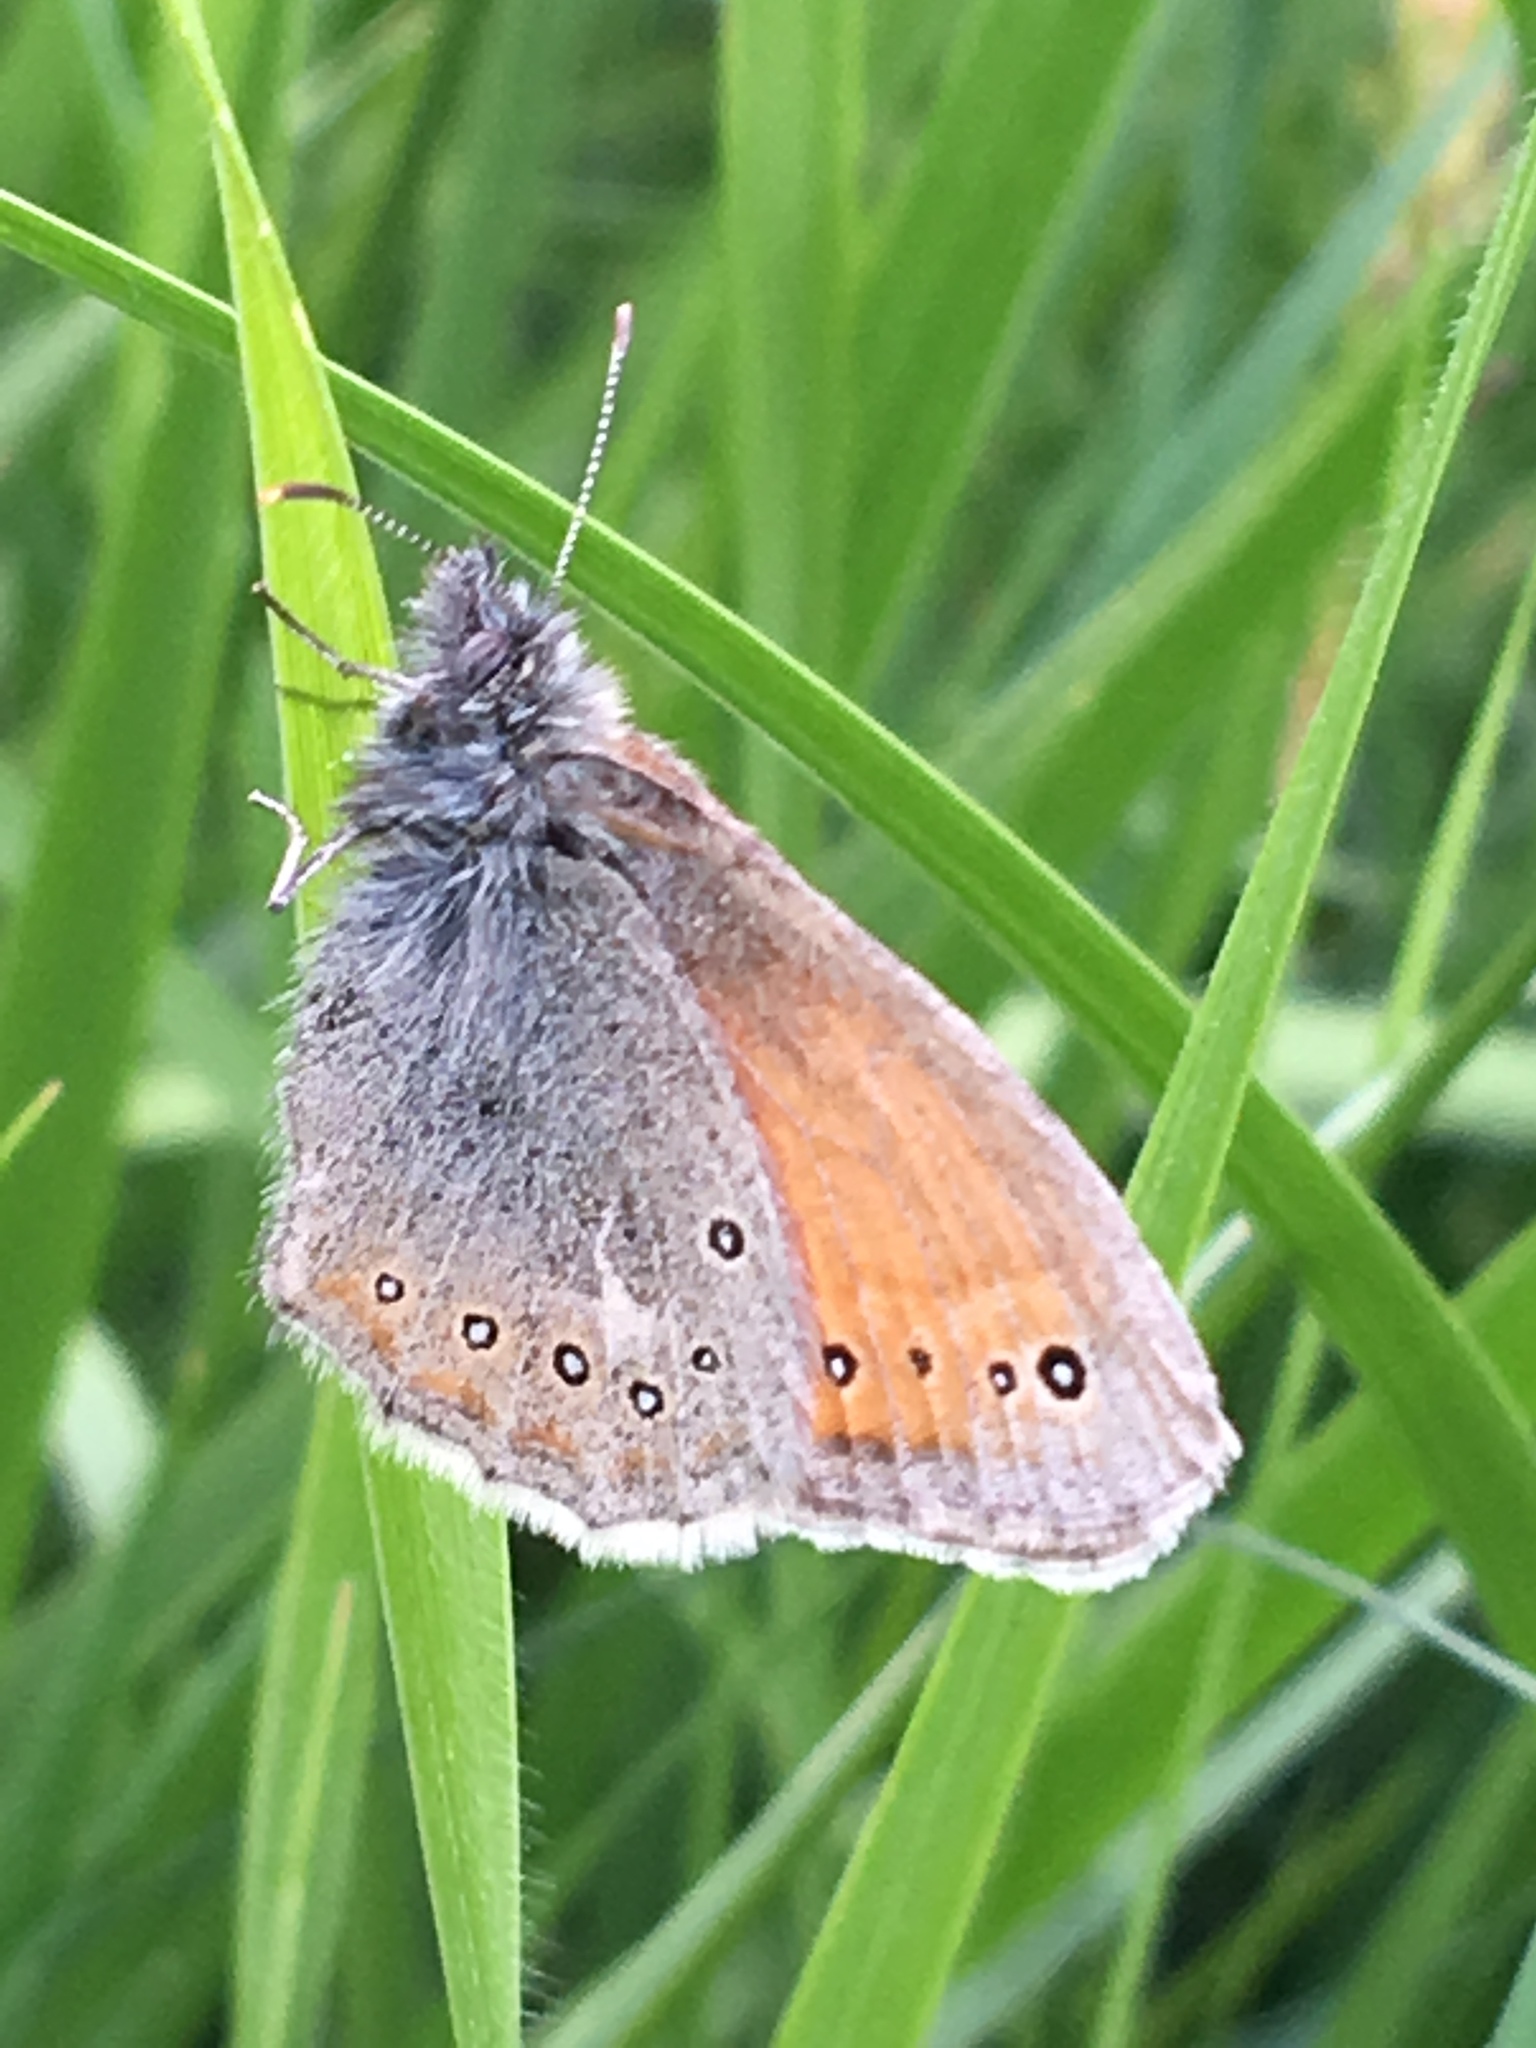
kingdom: Animalia
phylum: Arthropoda
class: Insecta
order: Lepidoptera
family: Nymphalidae
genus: Coenonympha
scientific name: Coenonympha amaryllis
